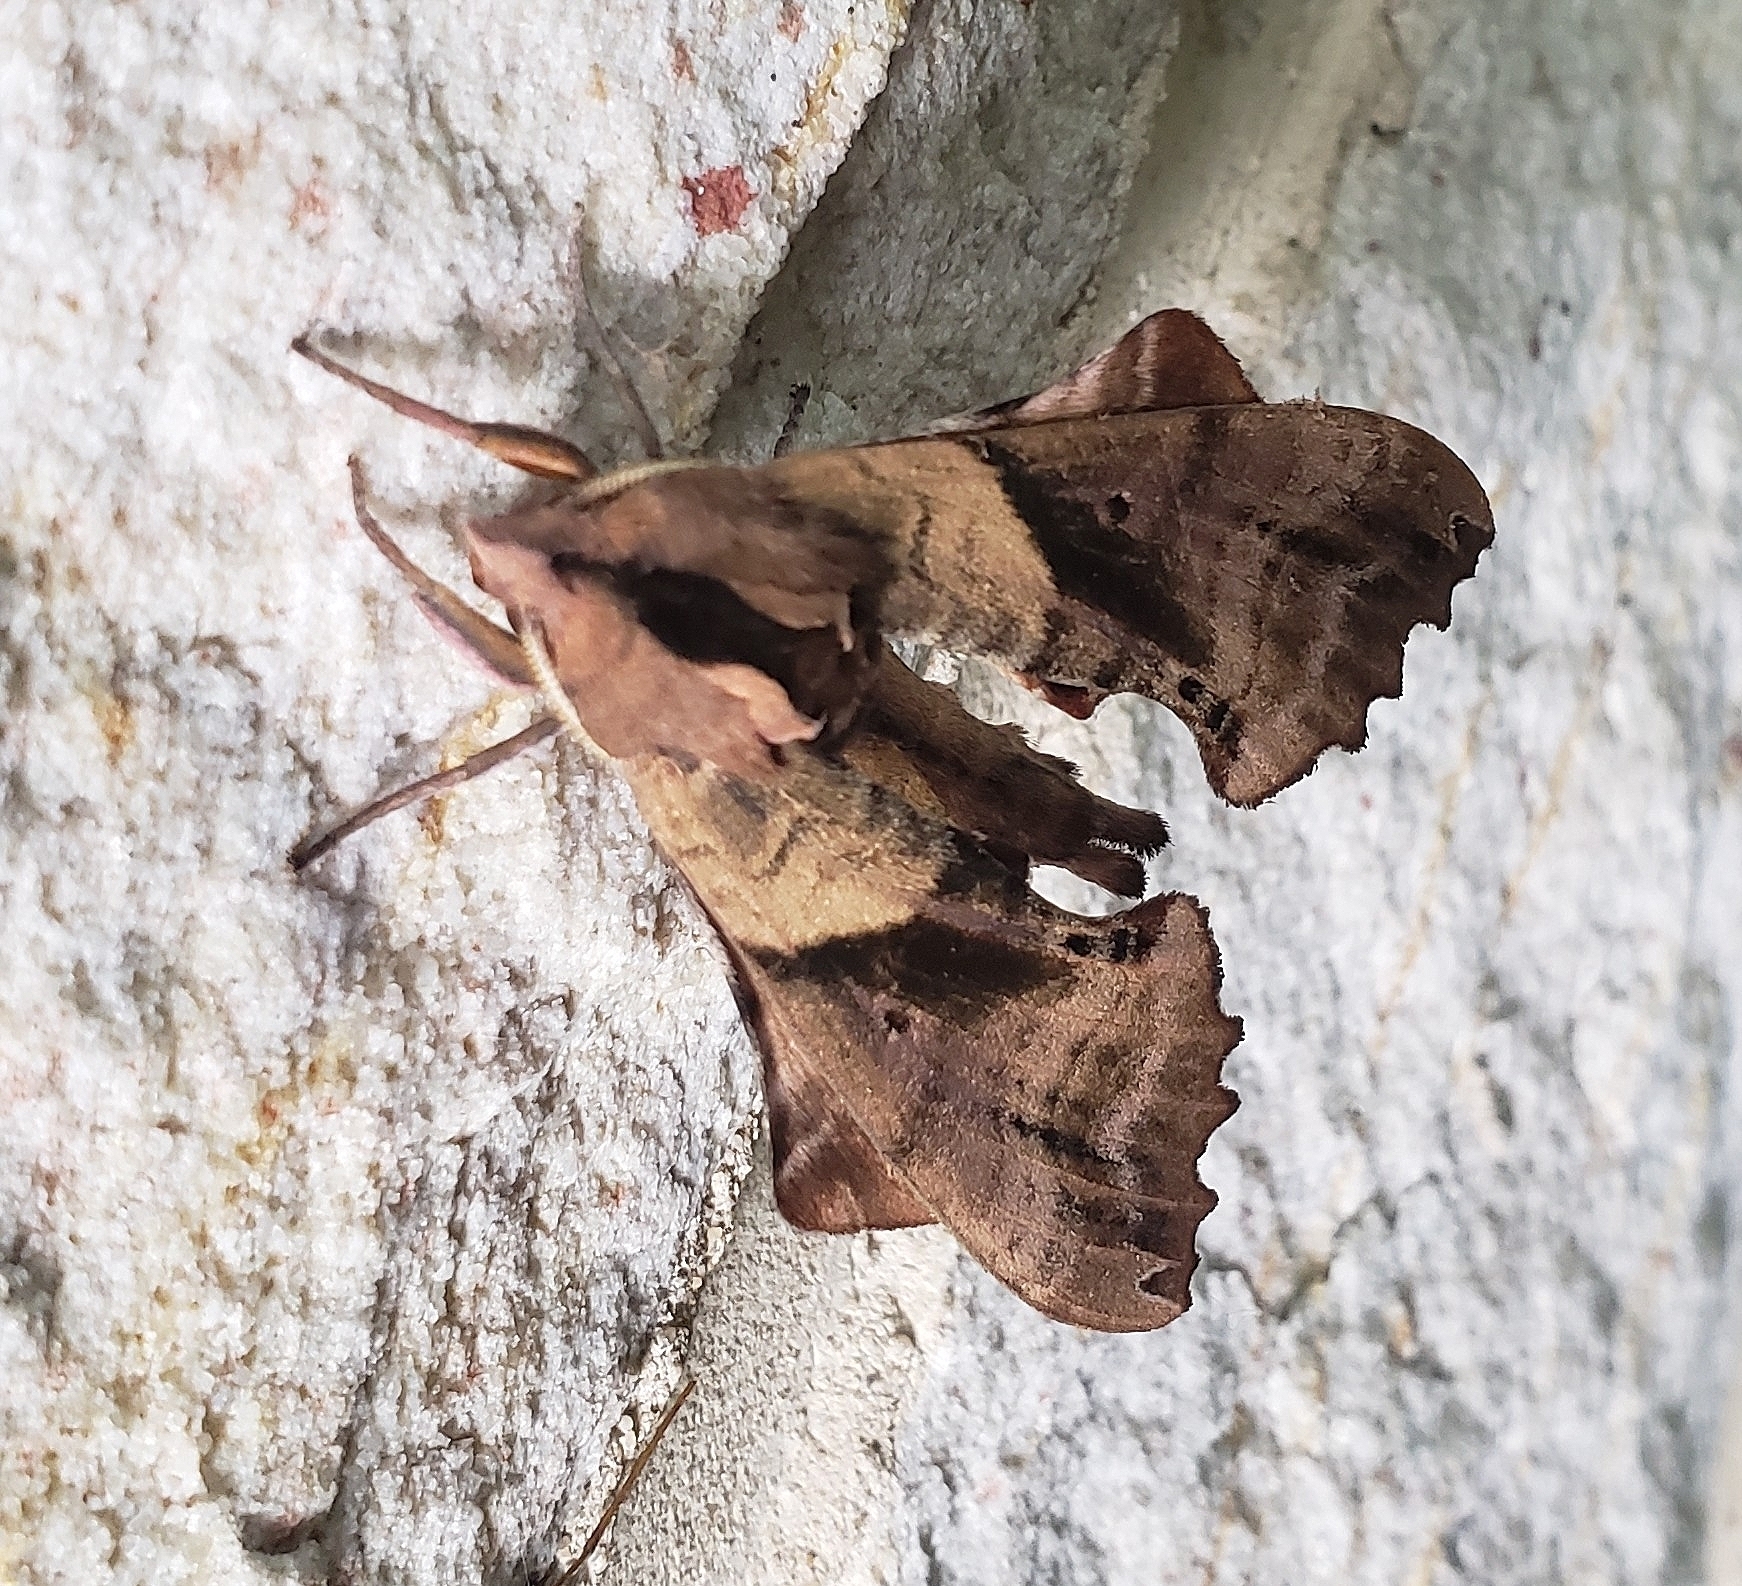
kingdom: Animalia
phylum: Arthropoda
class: Insecta
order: Lepidoptera
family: Sphingidae
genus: Paonias
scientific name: Paonias excaecata
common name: Blind-eyed sphinx
